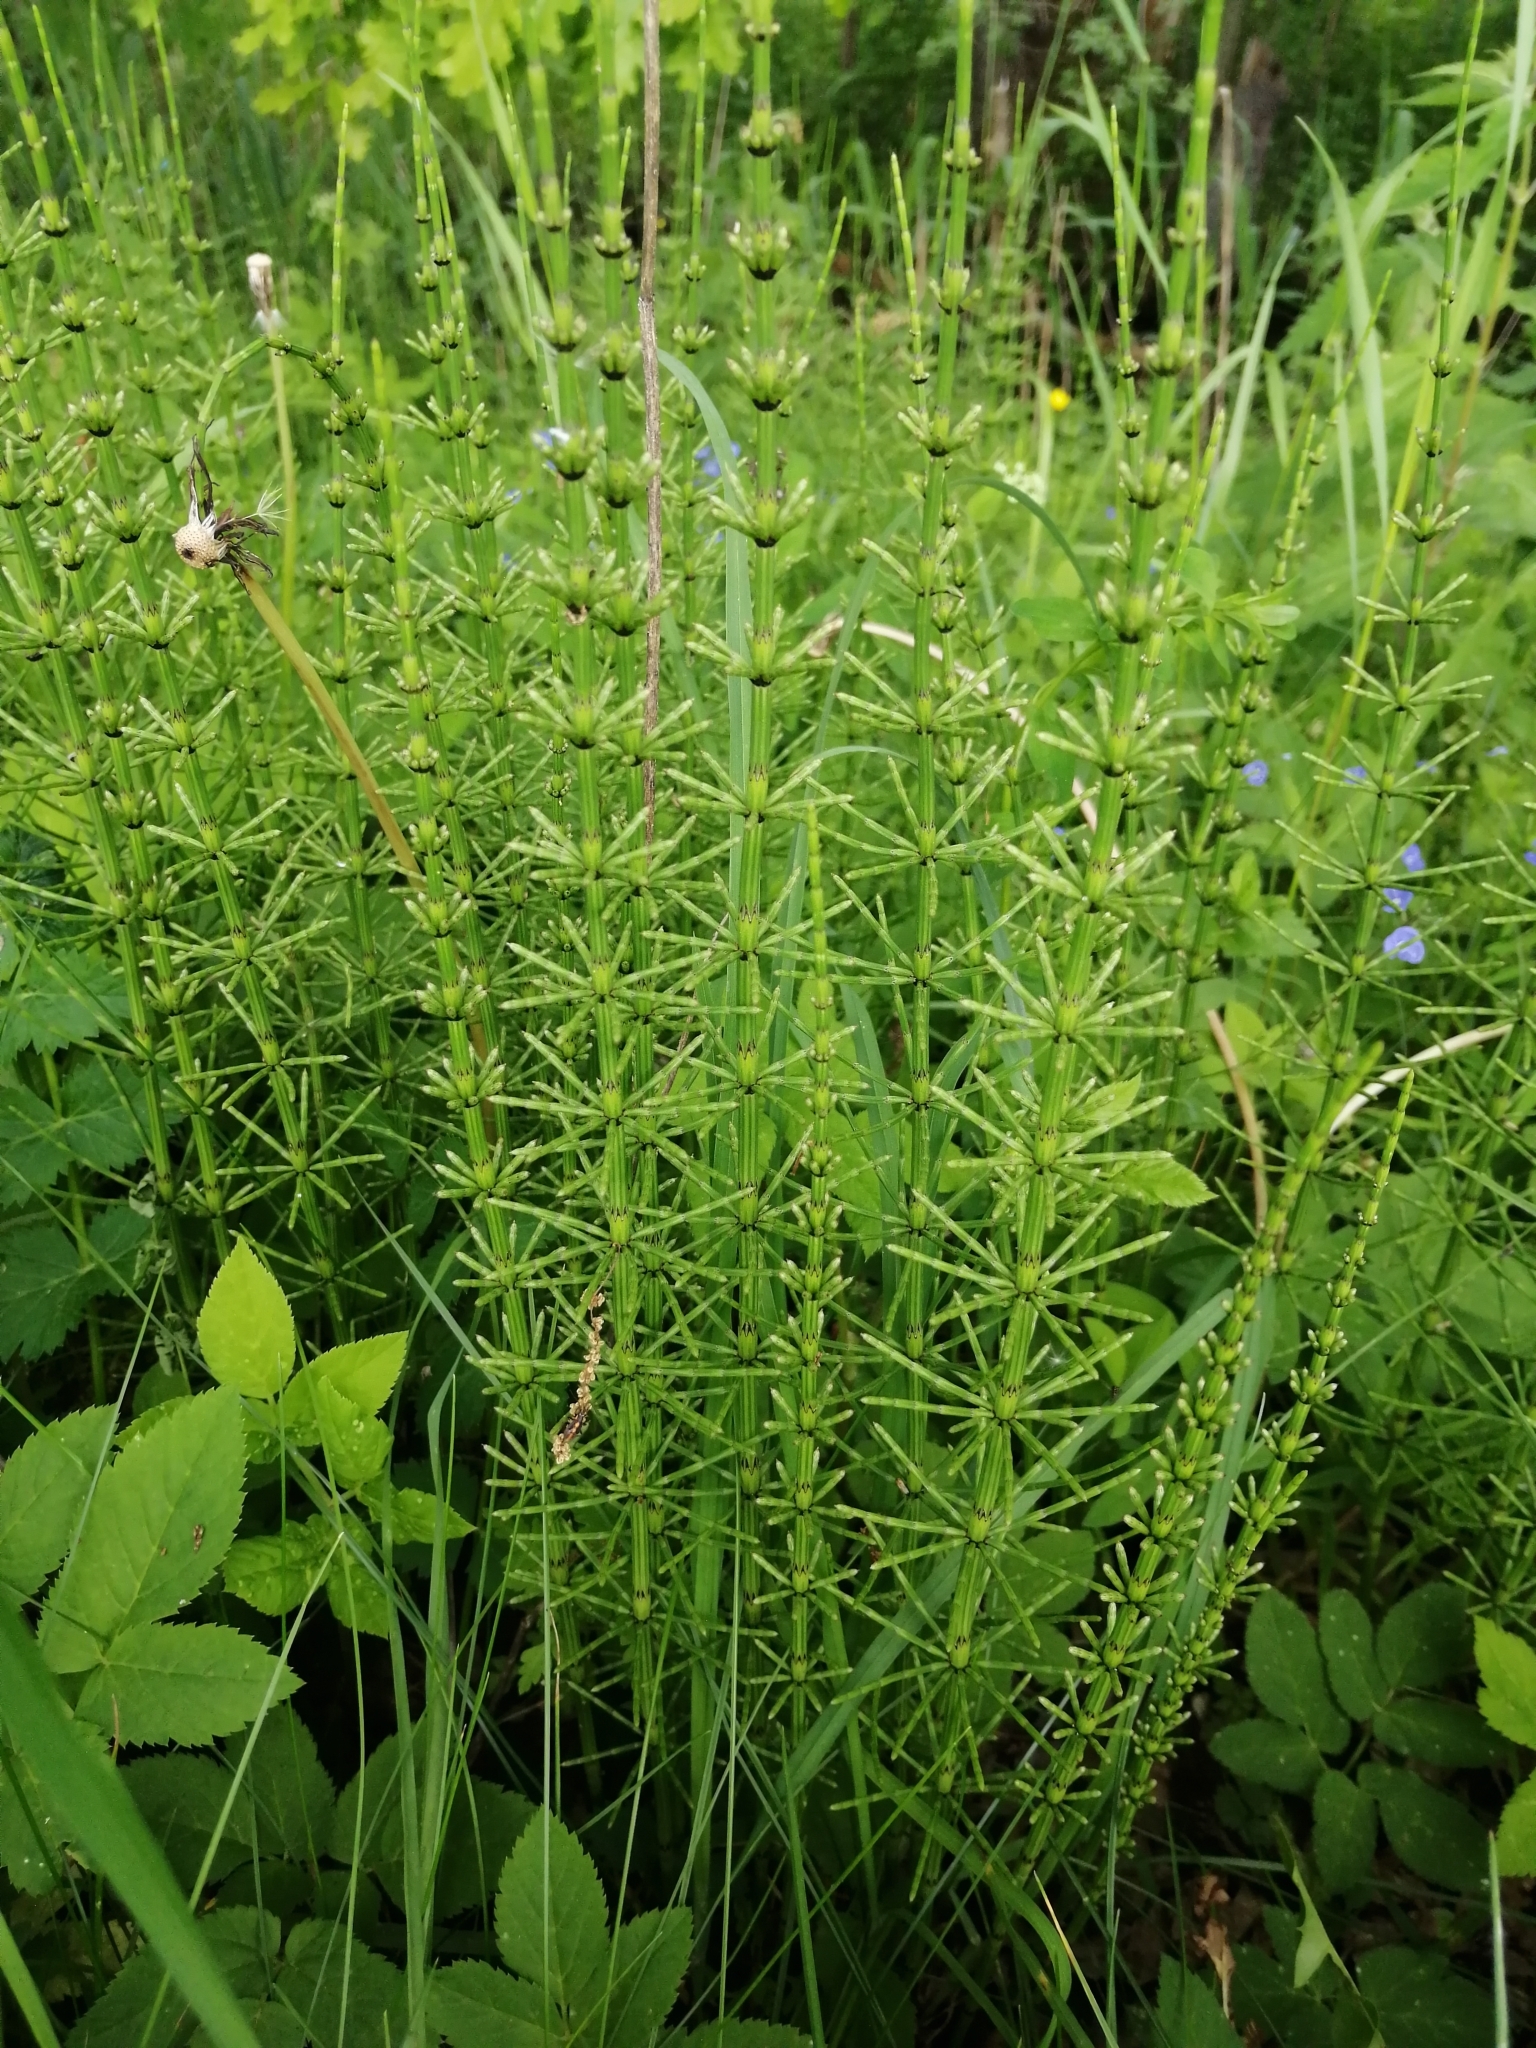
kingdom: Plantae
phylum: Tracheophyta
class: Polypodiopsida
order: Equisetales
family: Equisetaceae
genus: Equisetum
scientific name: Equisetum palustre
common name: Marsh horsetail
